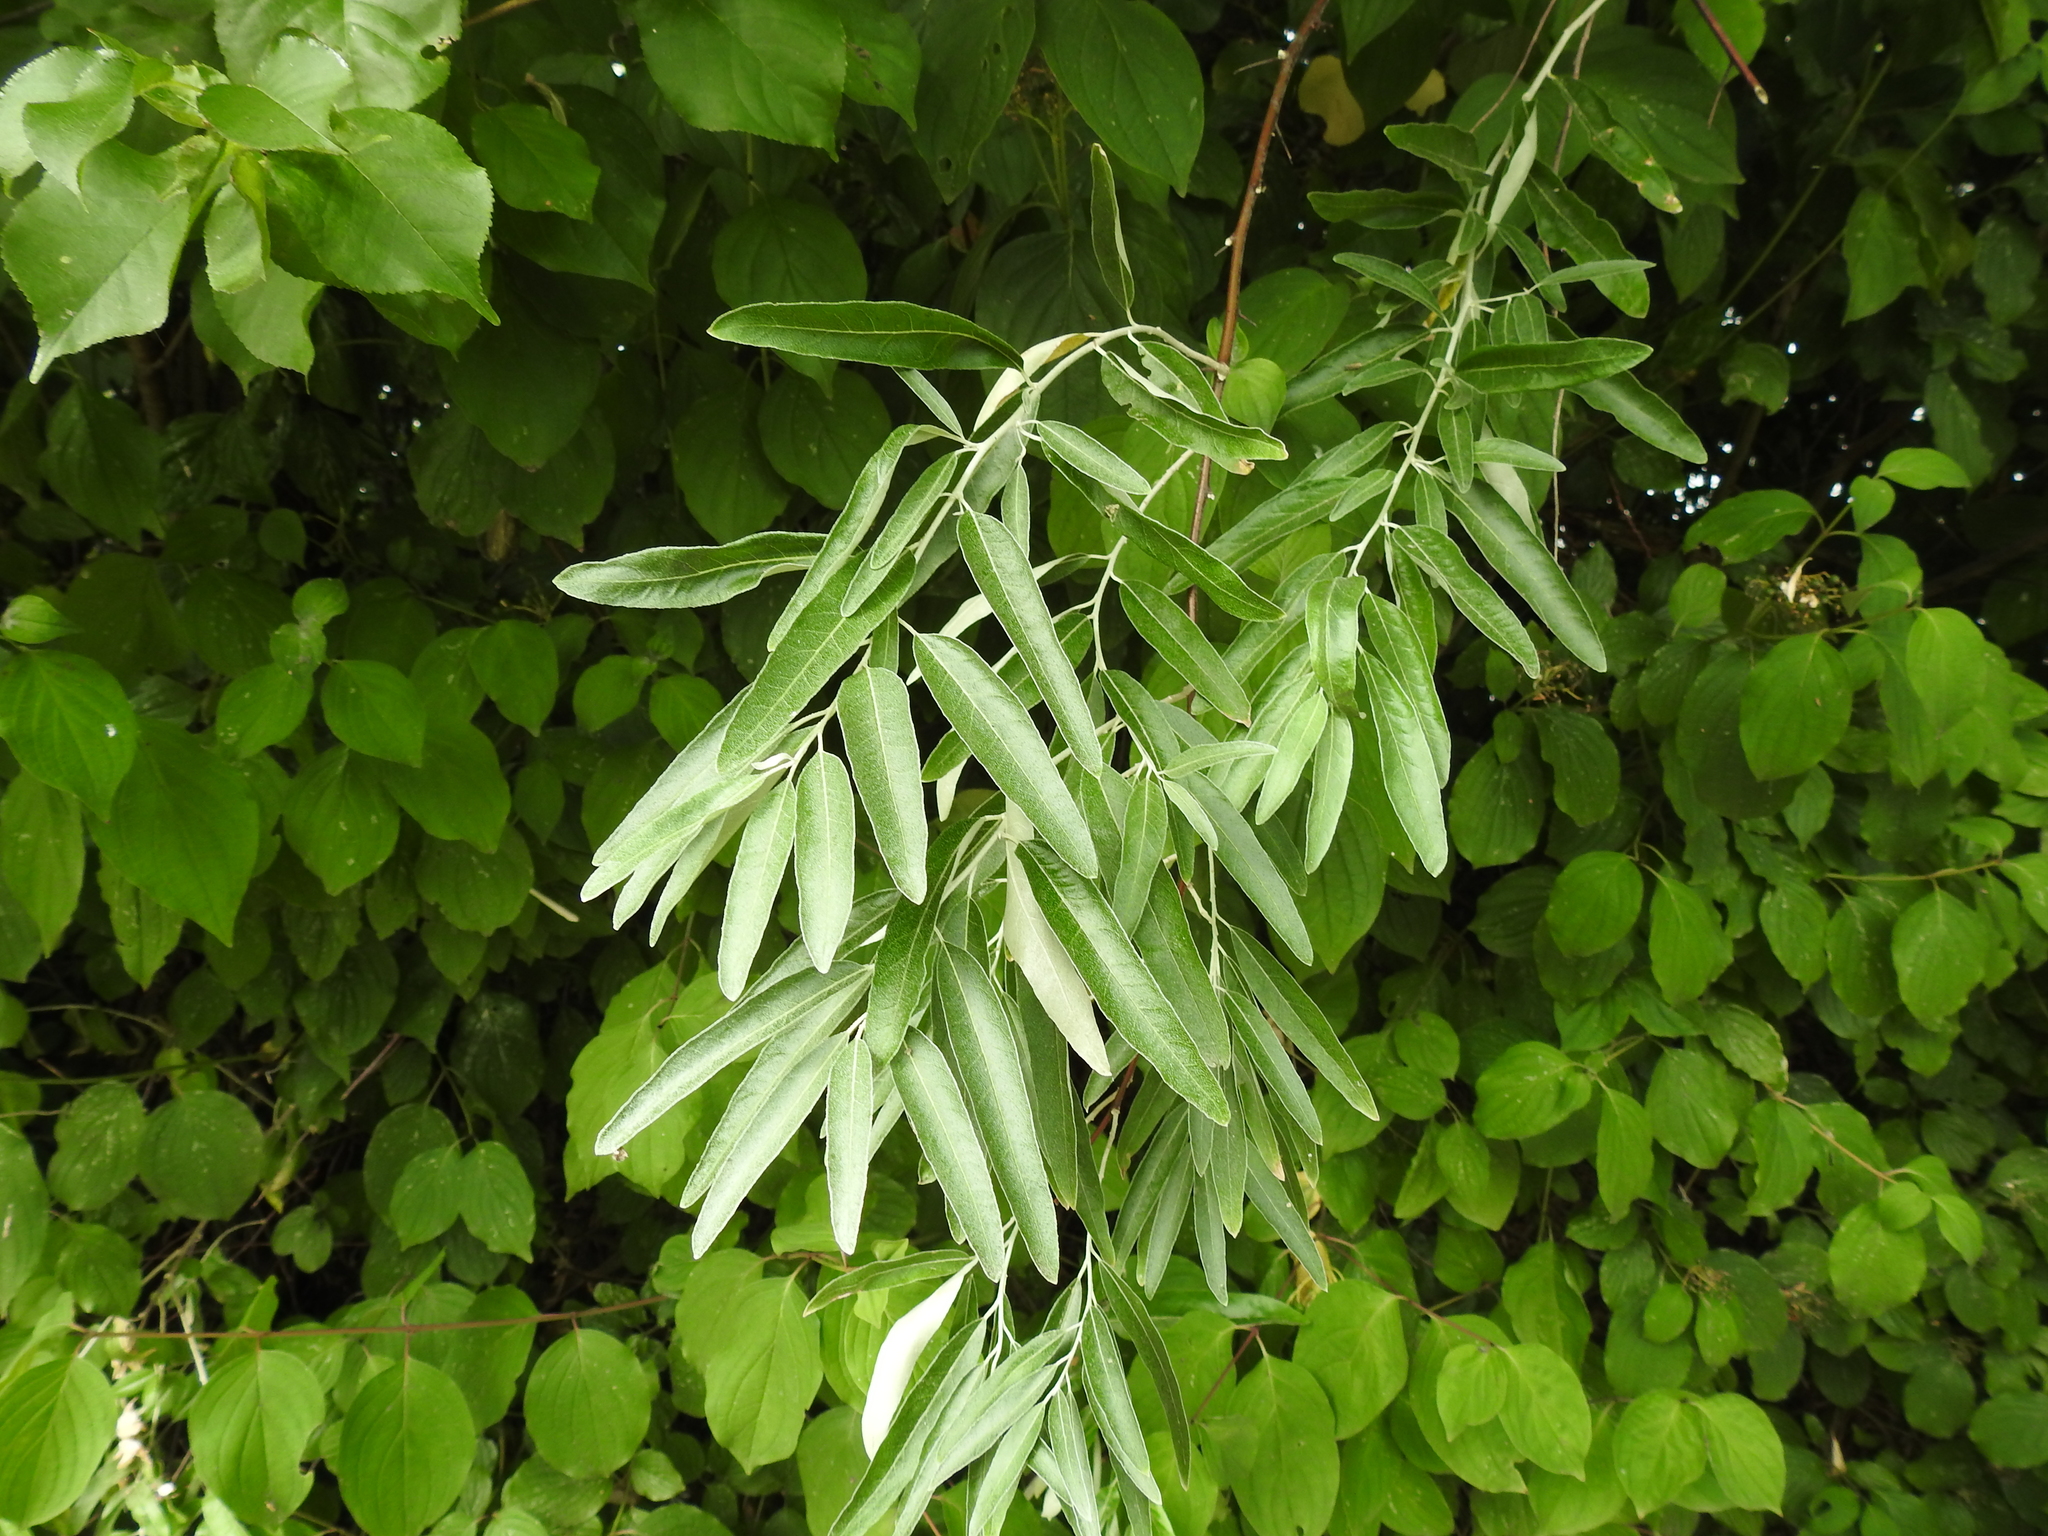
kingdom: Plantae
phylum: Tracheophyta
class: Magnoliopsida
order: Rosales
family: Elaeagnaceae
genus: Elaeagnus
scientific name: Elaeagnus angustifolia
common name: Russian olive
